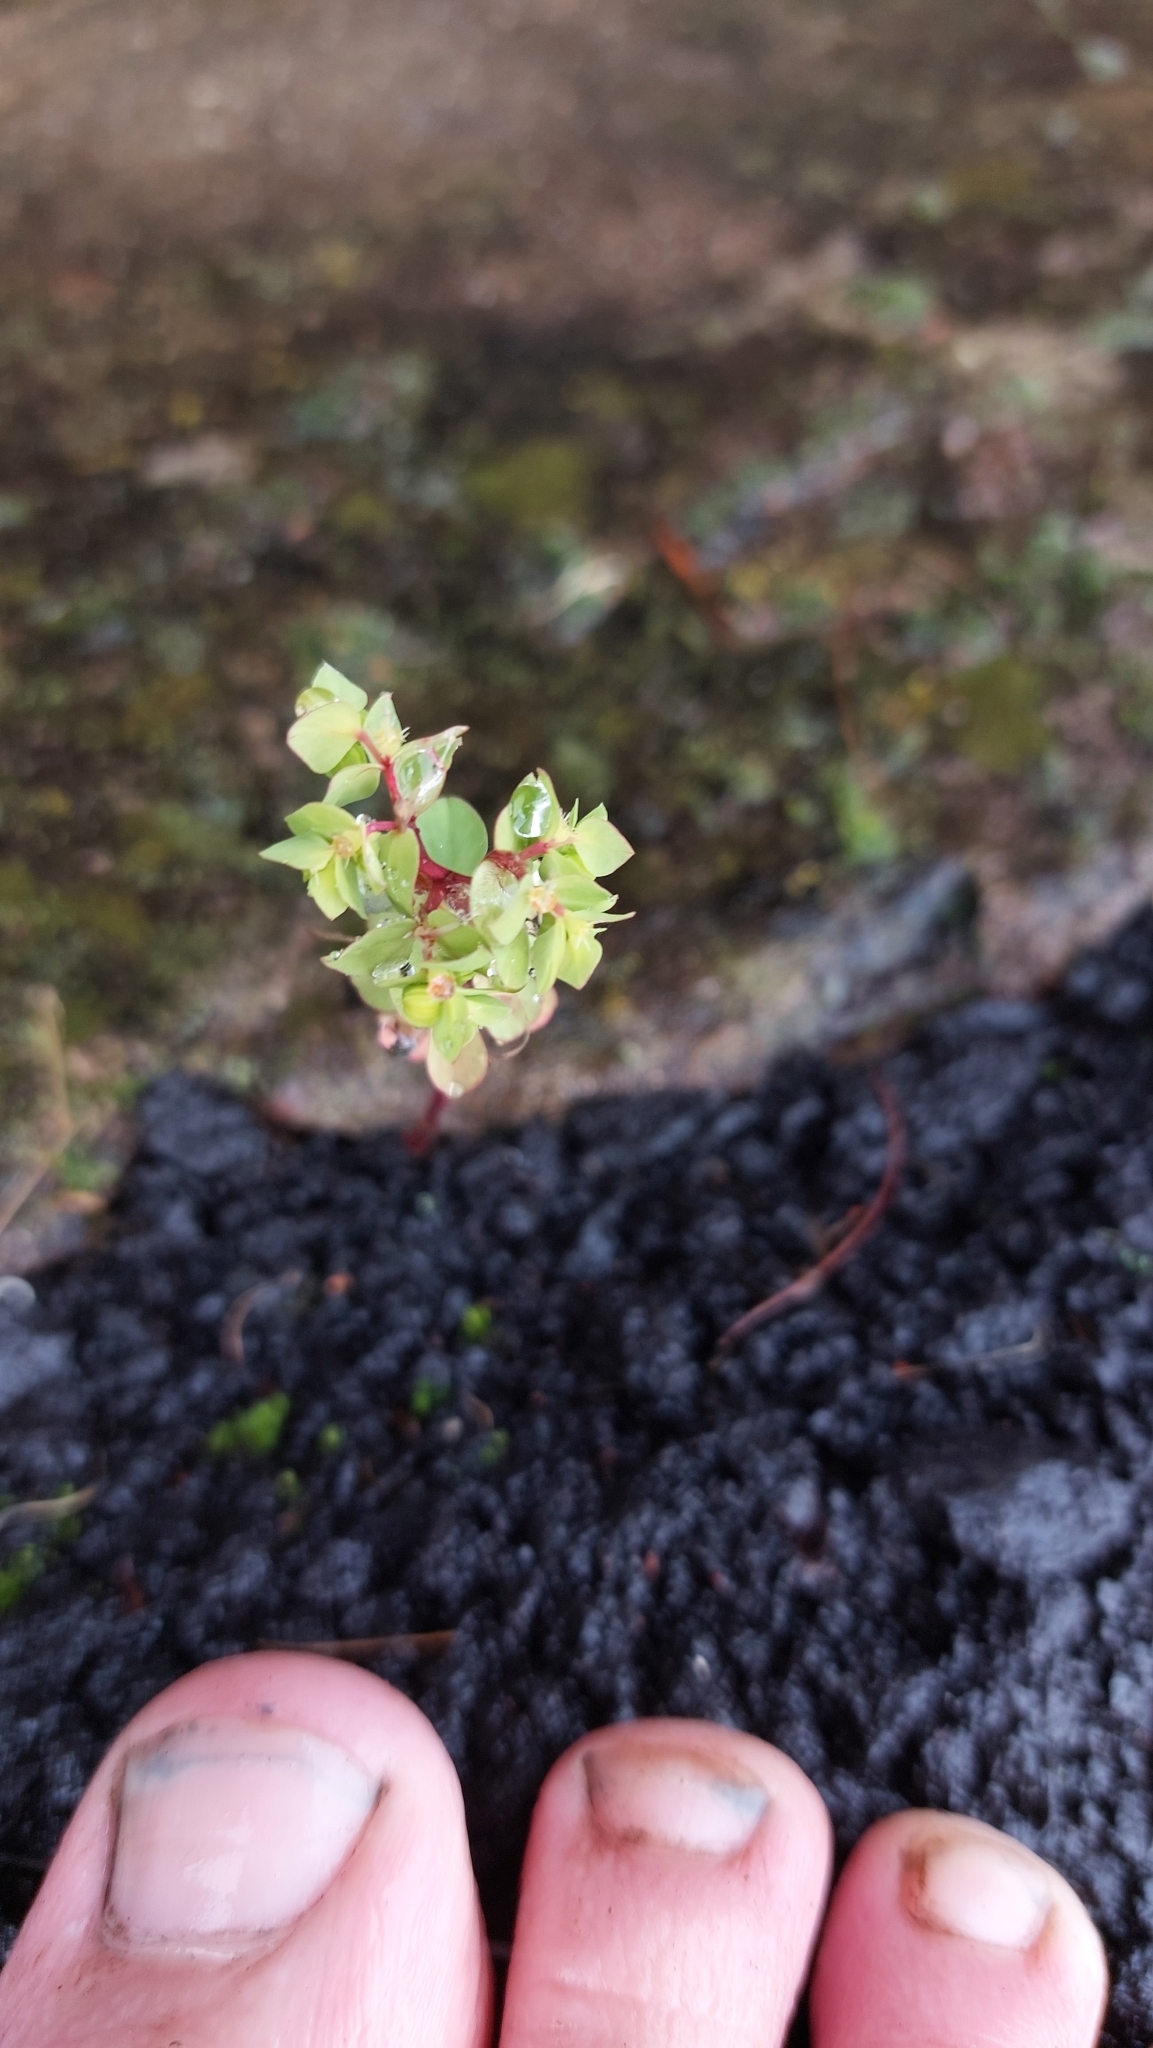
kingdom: Plantae
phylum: Tracheophyta
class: Magnoliopsida
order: Malpighiales
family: Euphorbiaceae
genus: Euphorbia
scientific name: Euphorbia peplus
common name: Petty spurge
